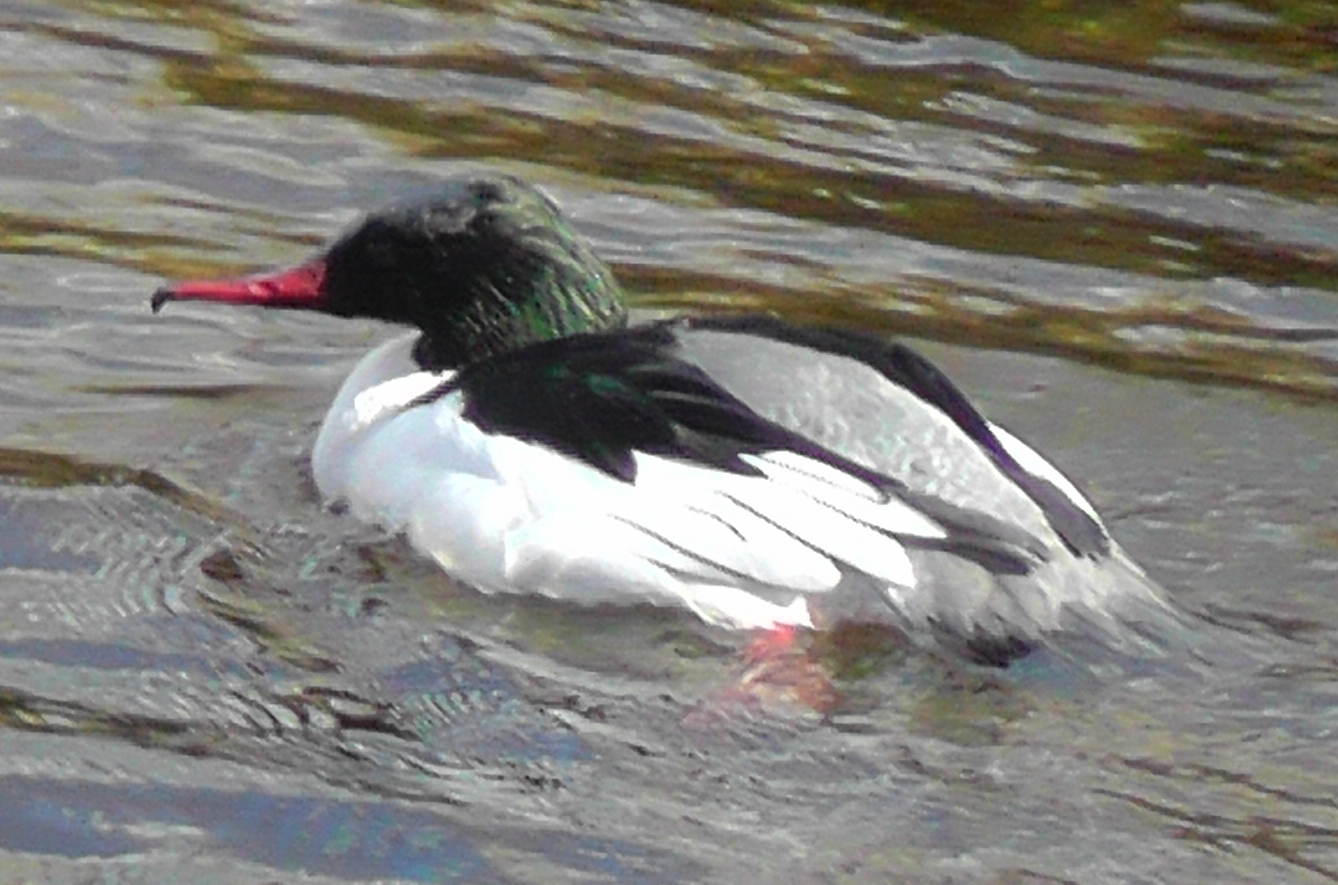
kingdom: Animalia
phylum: Chordata
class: Aves
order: Anseriformes
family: Anatidae
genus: Mergus
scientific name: Mergus merganser
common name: Common merganser
